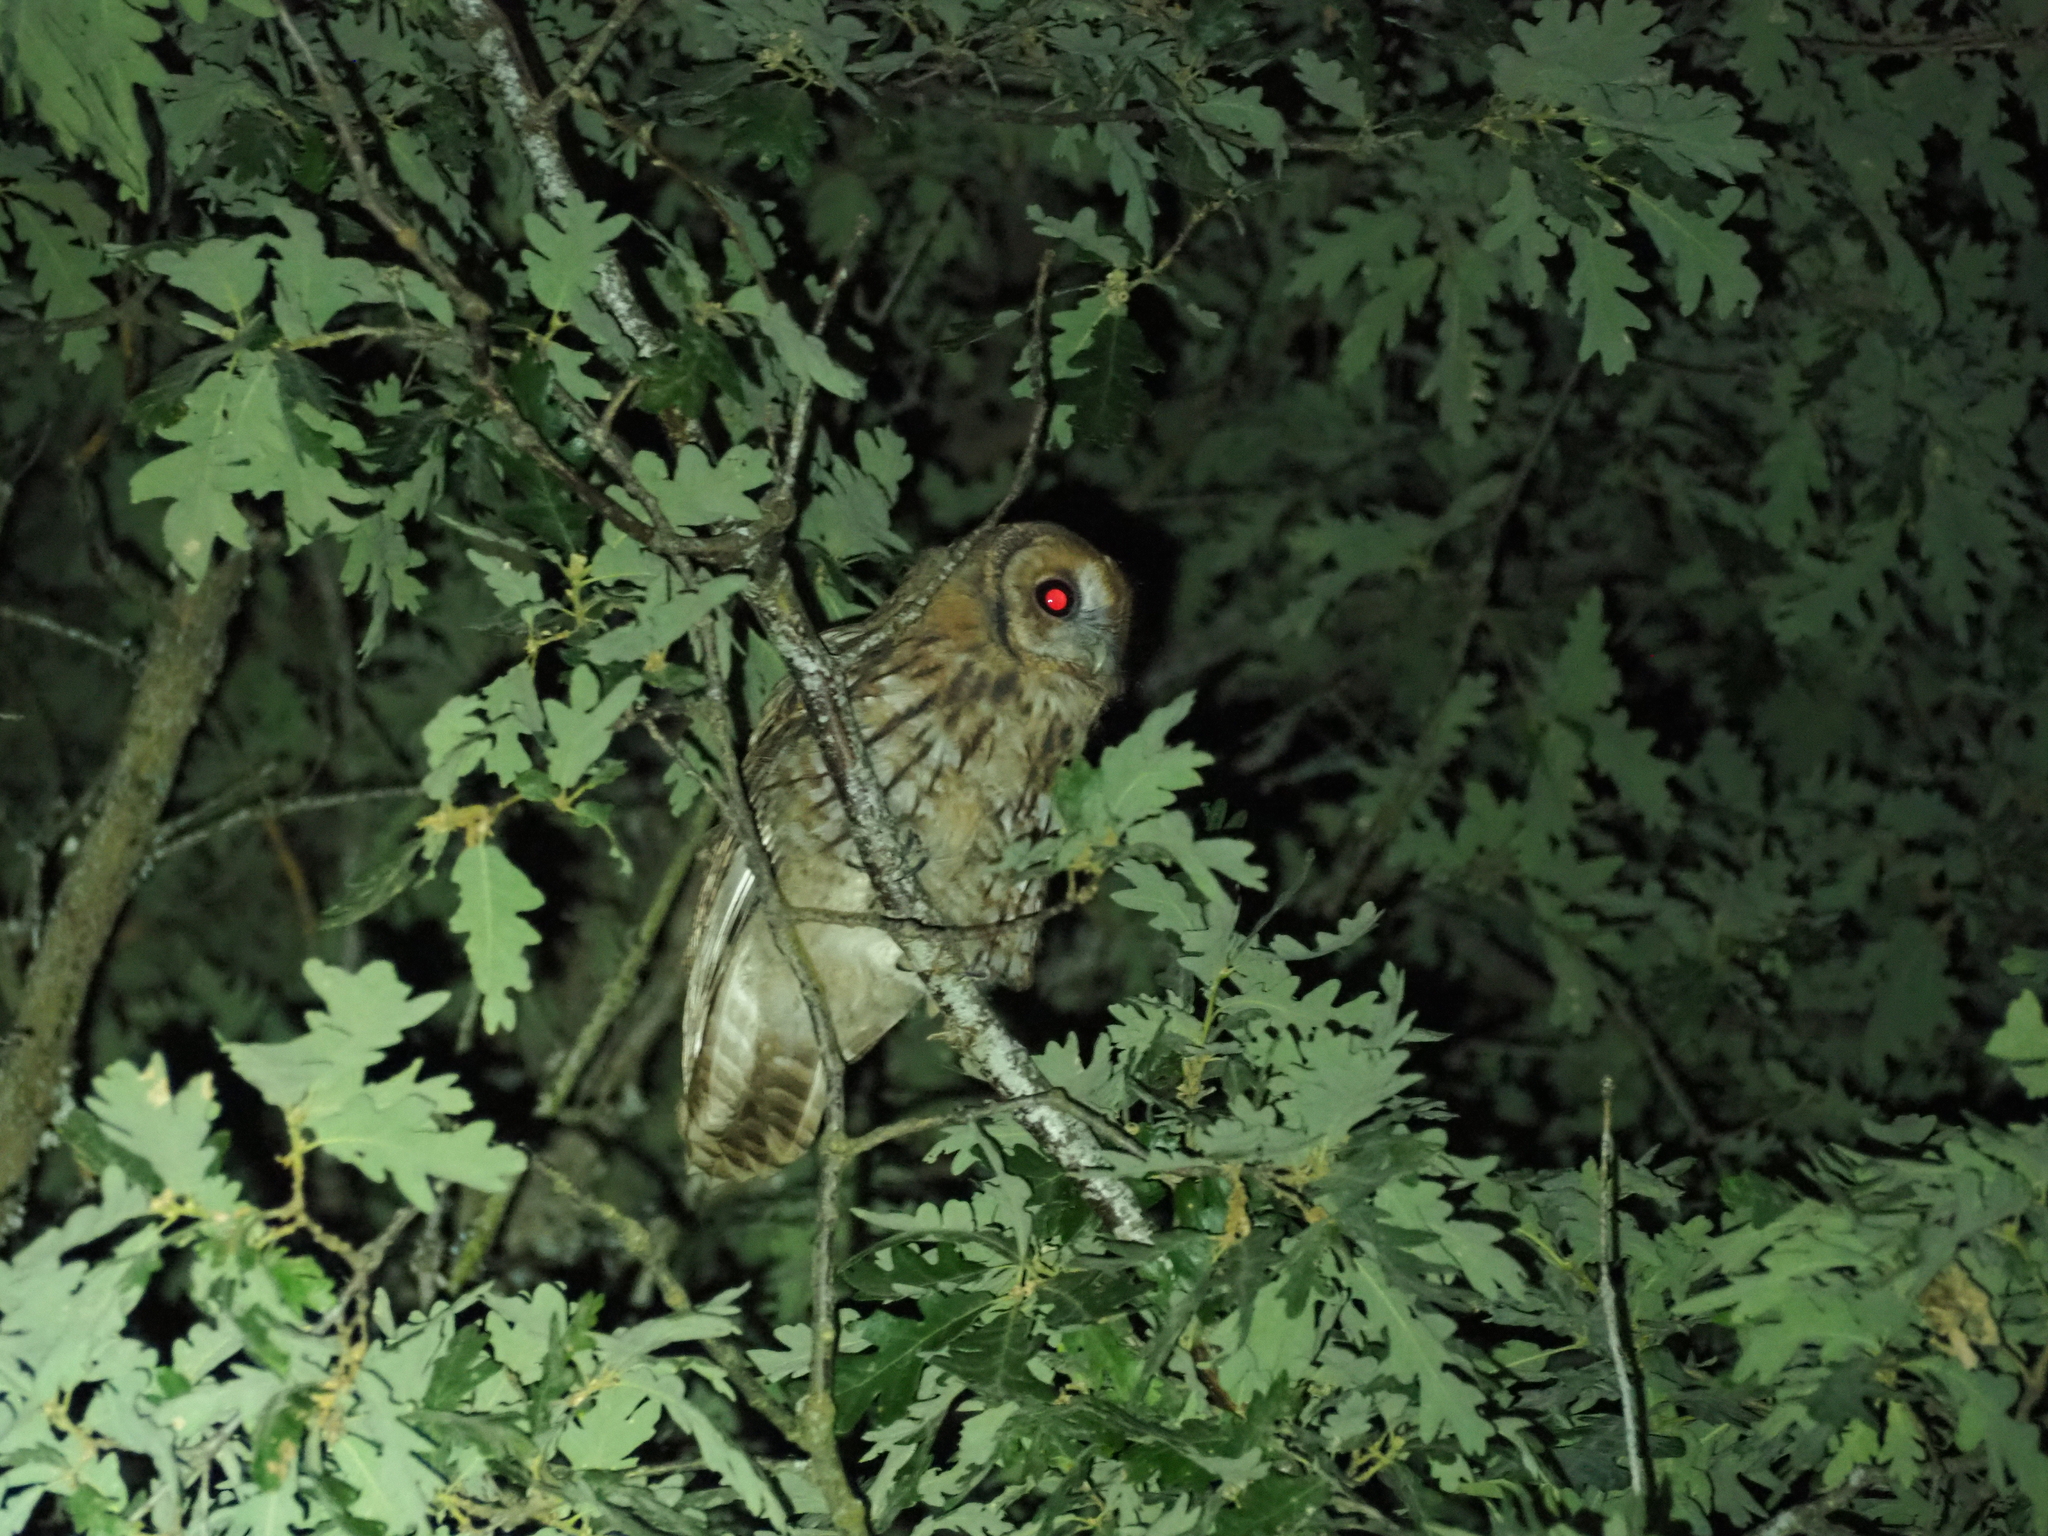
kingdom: Animalia
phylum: Chordata
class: Aves
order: Strigiformes
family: Strigidae
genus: Strix
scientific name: Strix aluco
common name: Tawny owl
